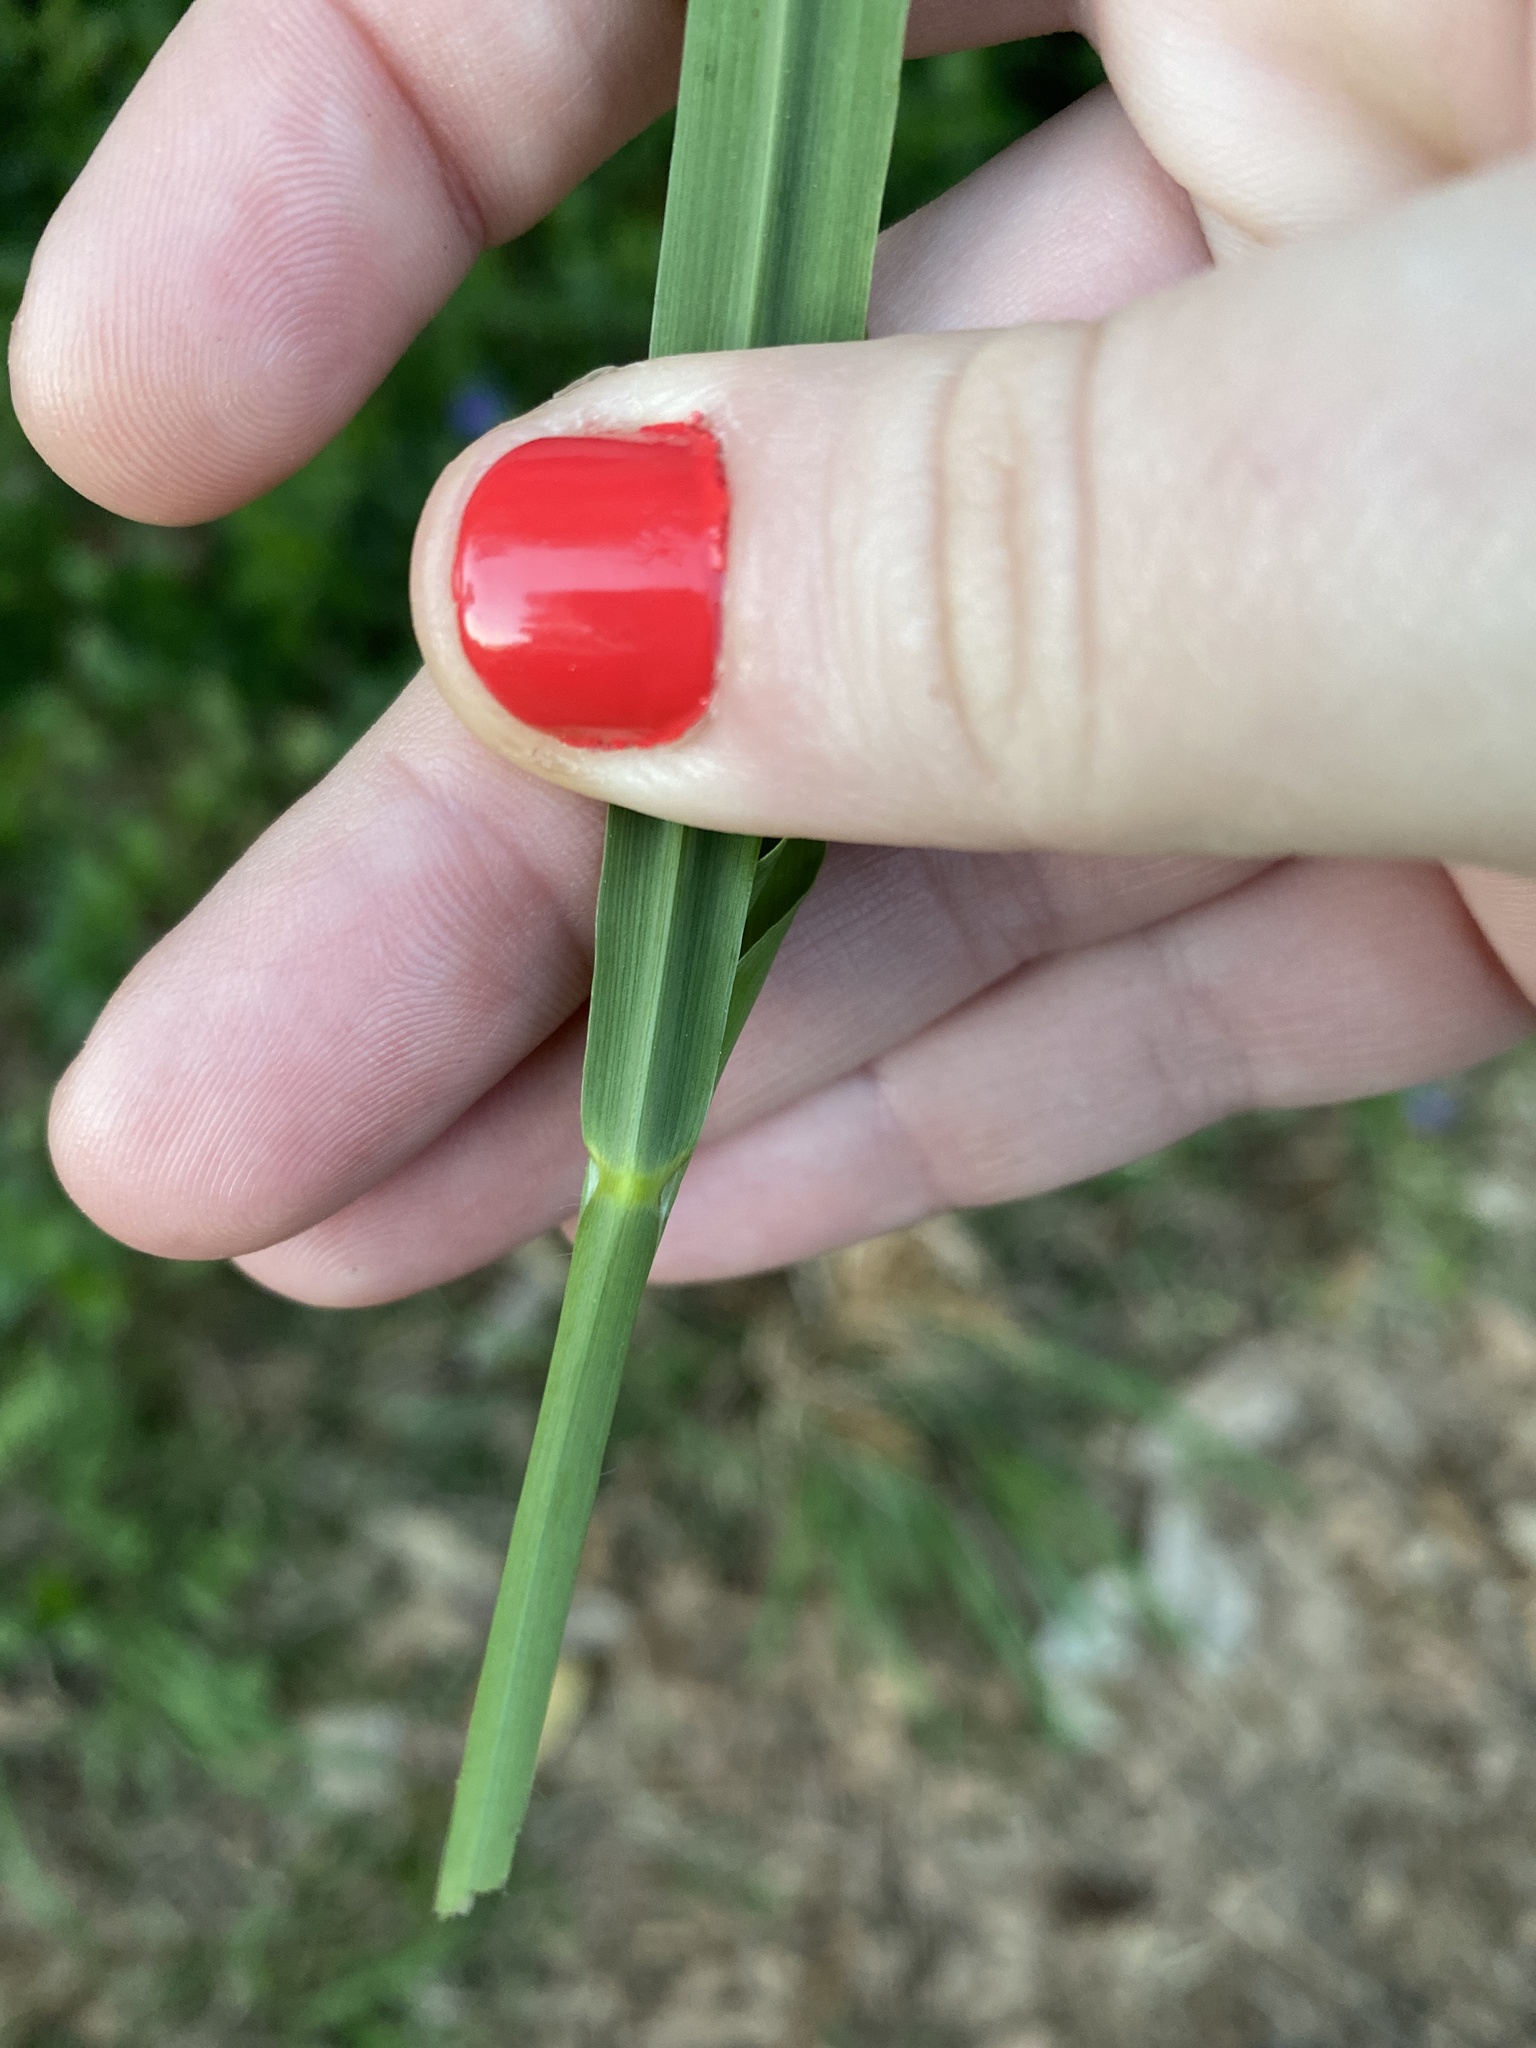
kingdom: Plantae
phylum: Tracheophyta
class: Liliopsida
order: Poales
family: Poaceae
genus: Andropogon
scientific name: Andropogon virginicus
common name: Broomsedge bluestem
